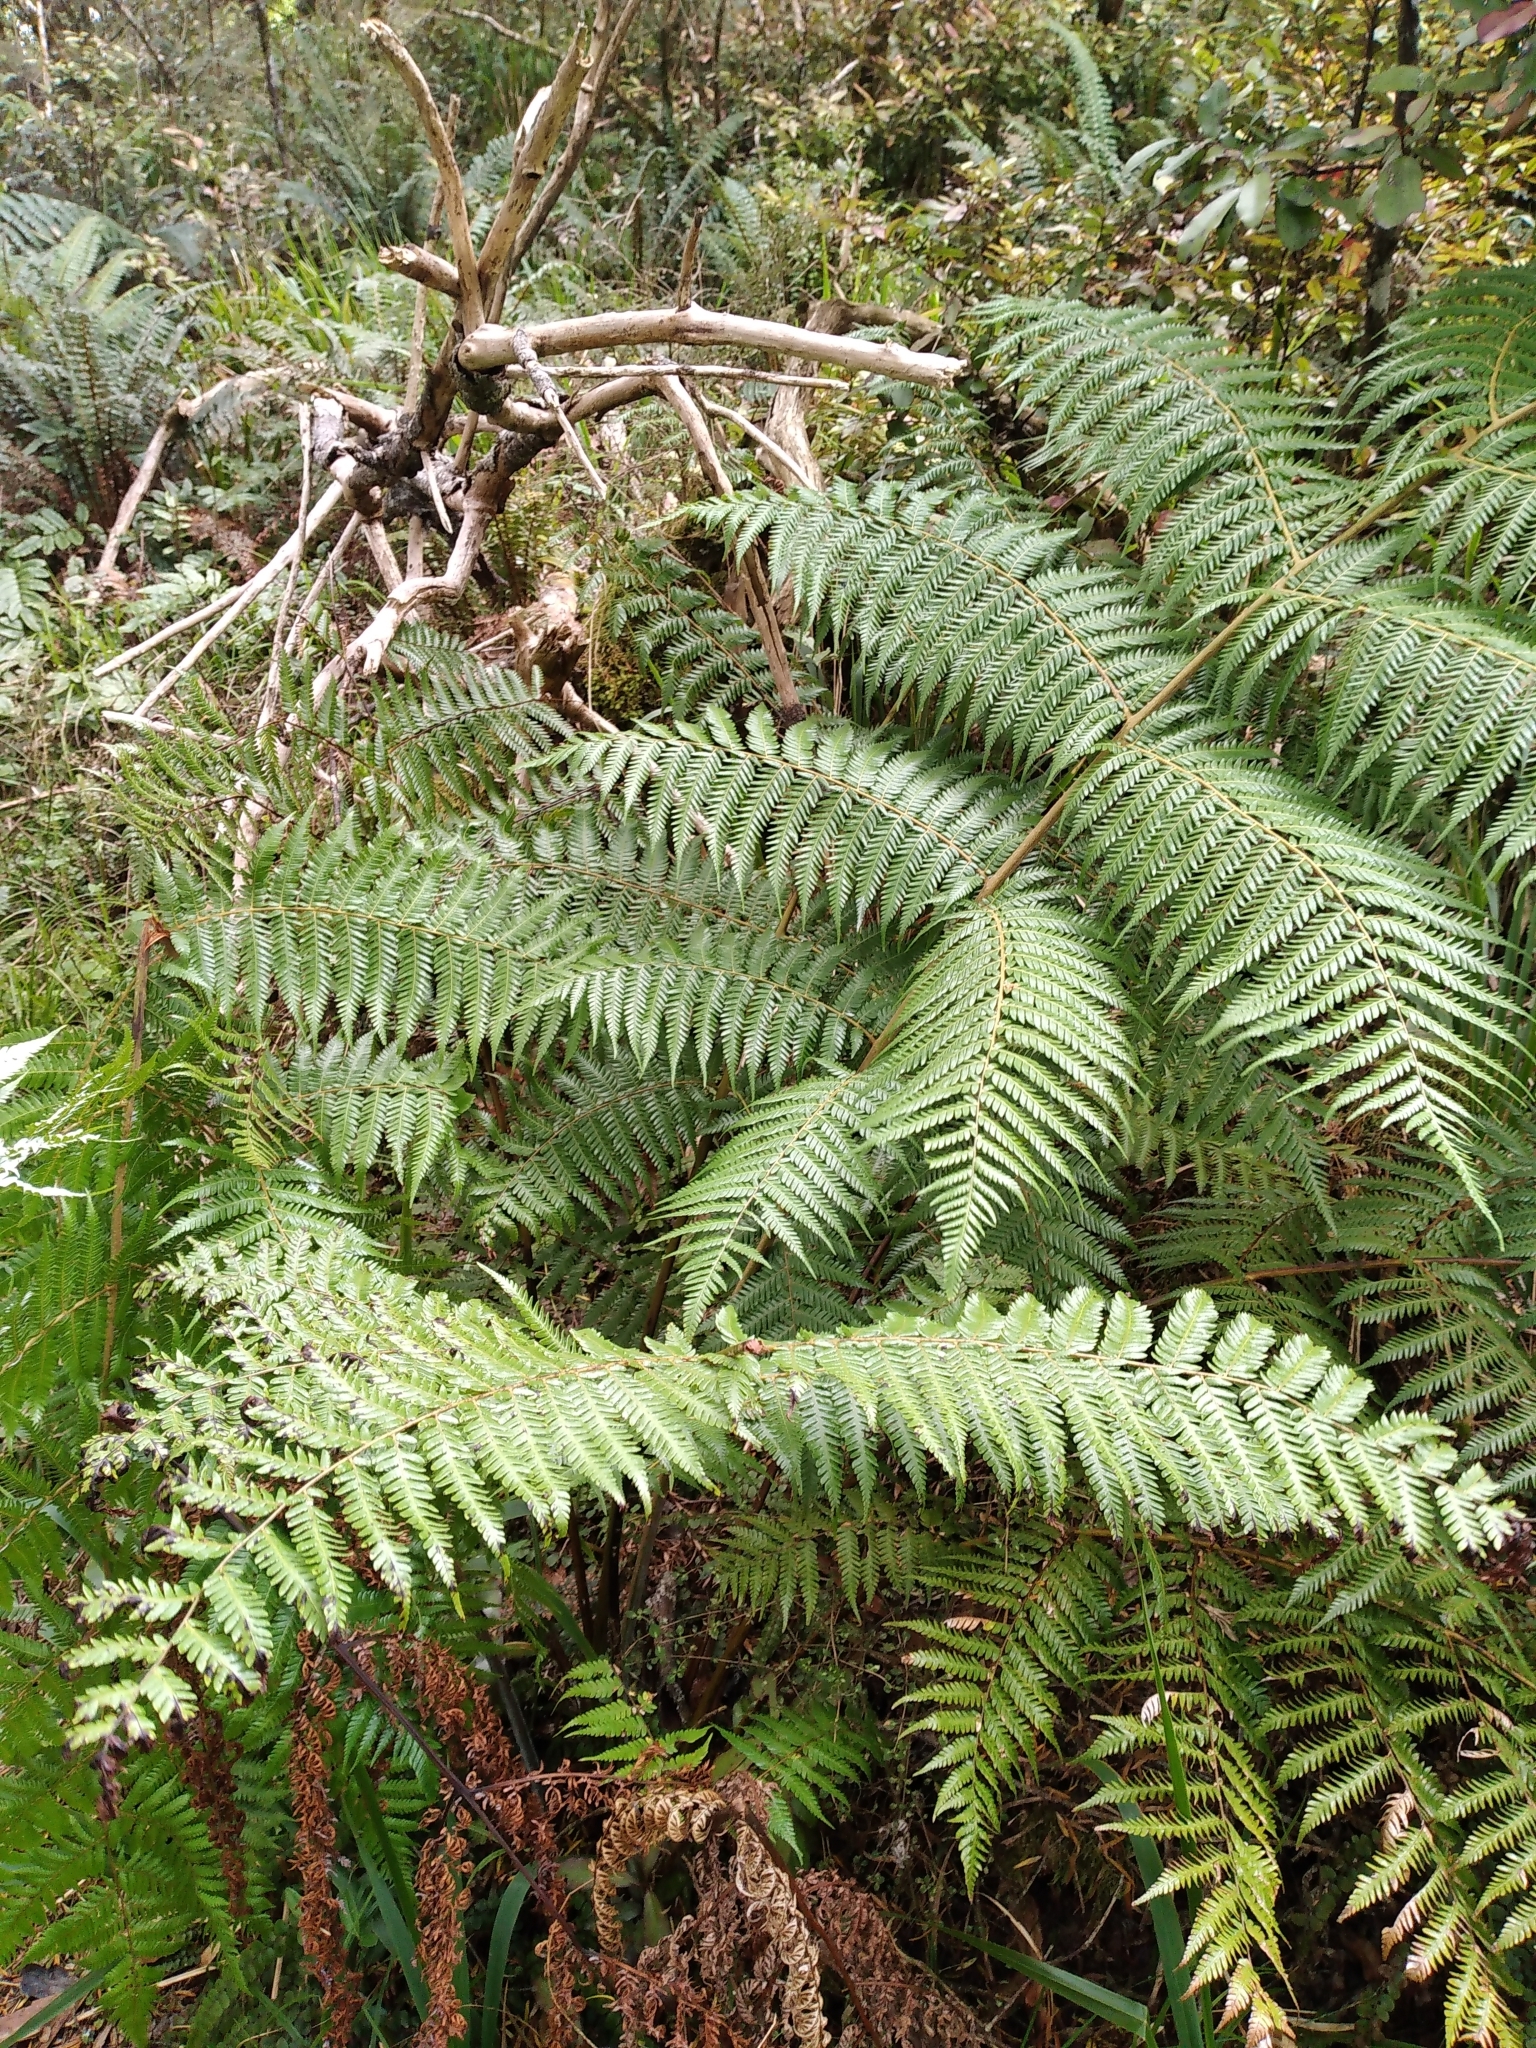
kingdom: Plantae
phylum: Tracheophyta
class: Polypodiopsida
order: Cyatheales
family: Cyatheaceae
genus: Alsophila
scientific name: Alsophila dealbata
